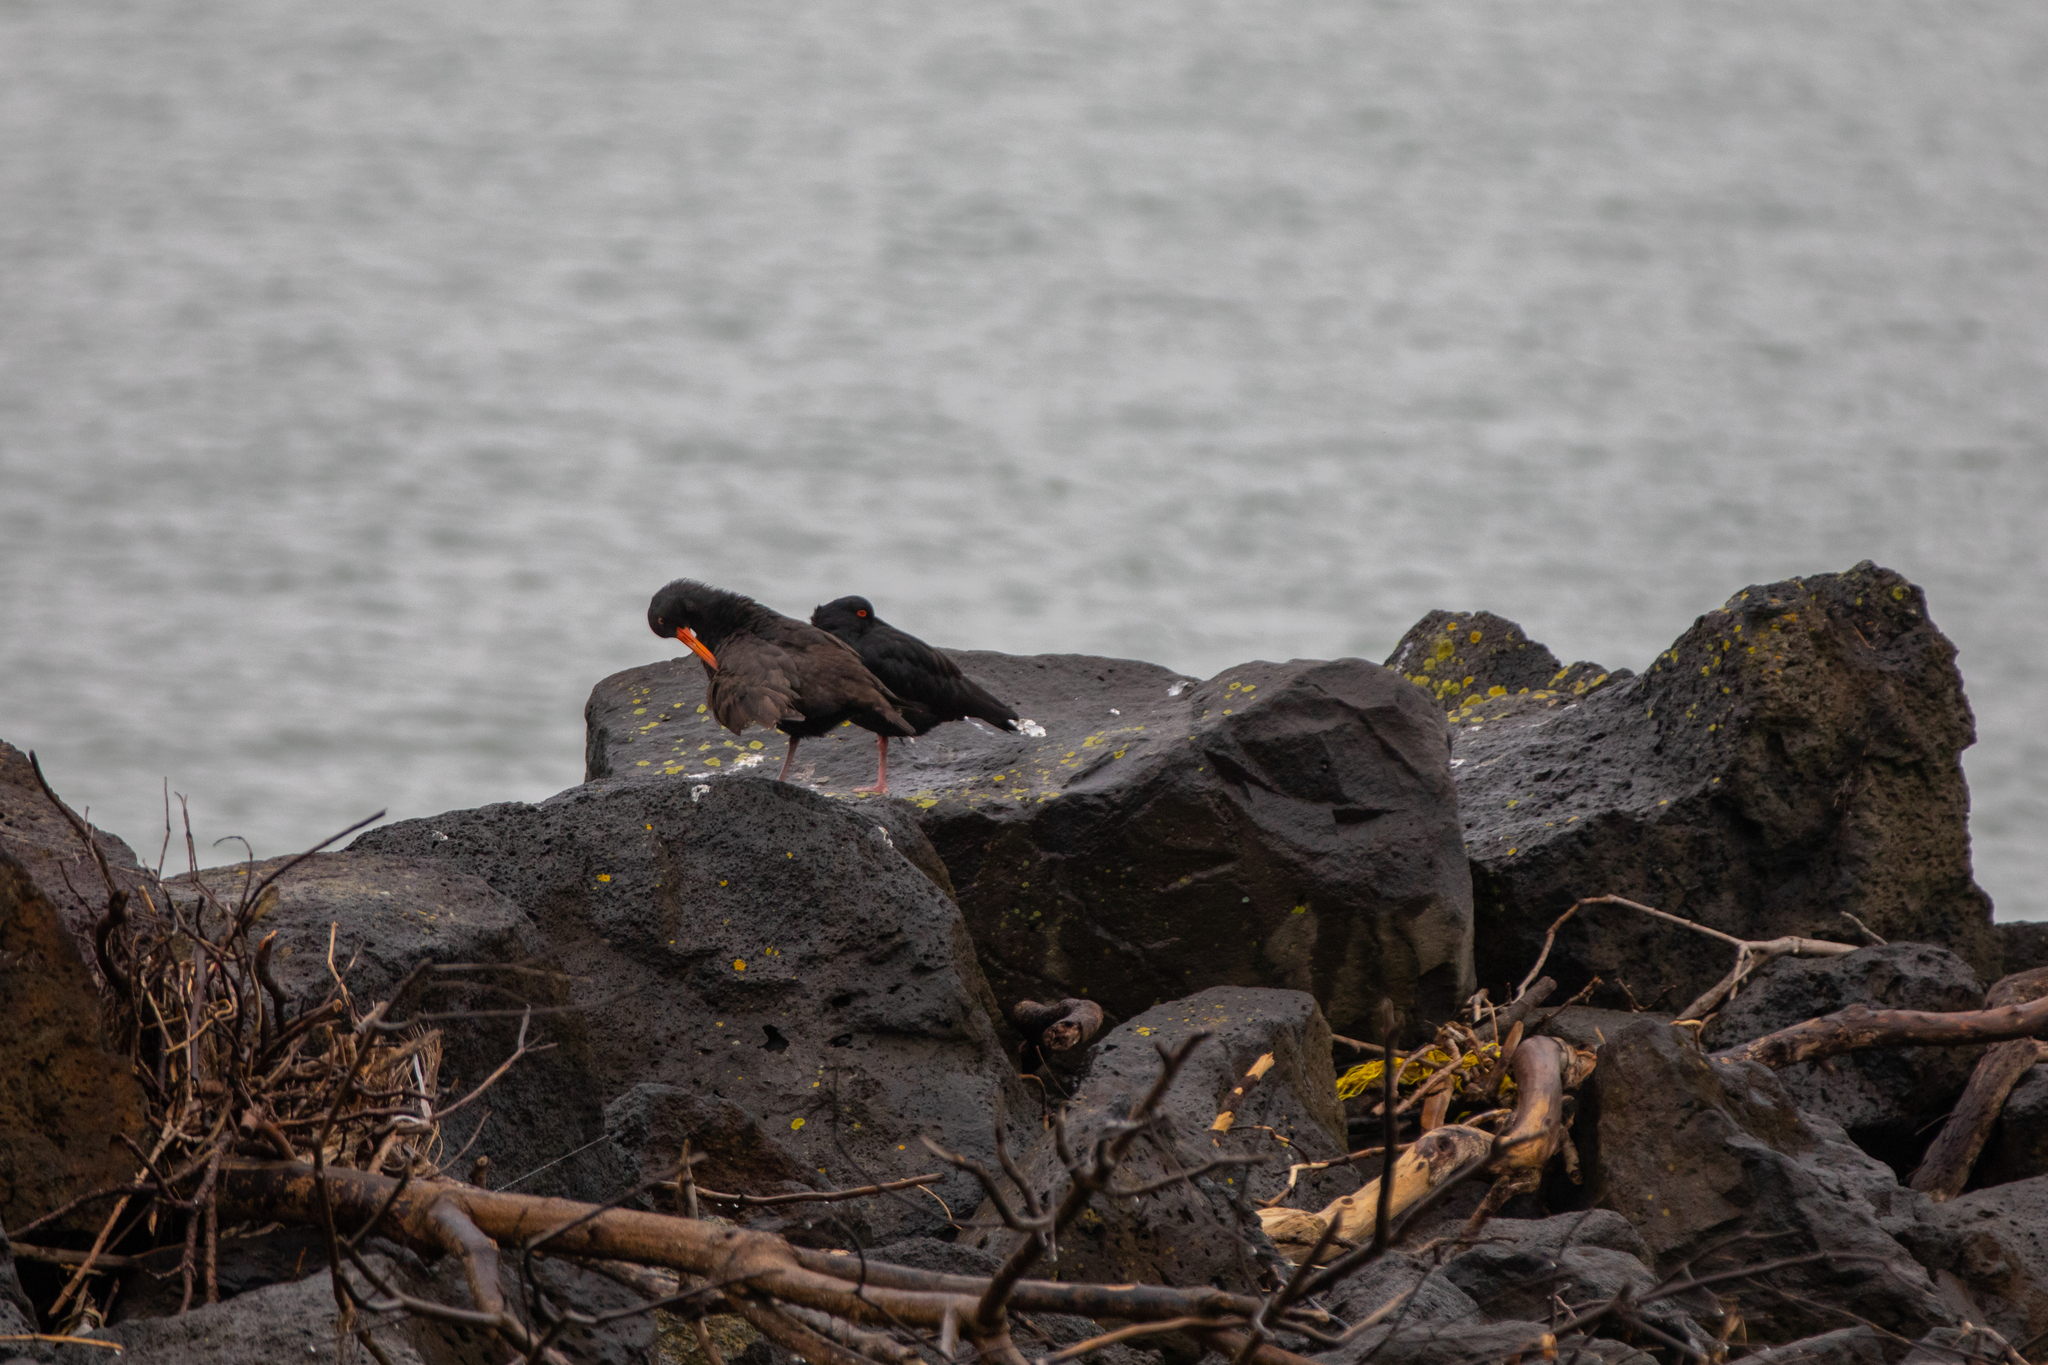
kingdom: Animalia
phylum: Chordata
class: Aves
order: Charadriiformes
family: Haematopodidae
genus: Haematopus
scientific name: Haematopus unicolor
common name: Variable oystercatcher
